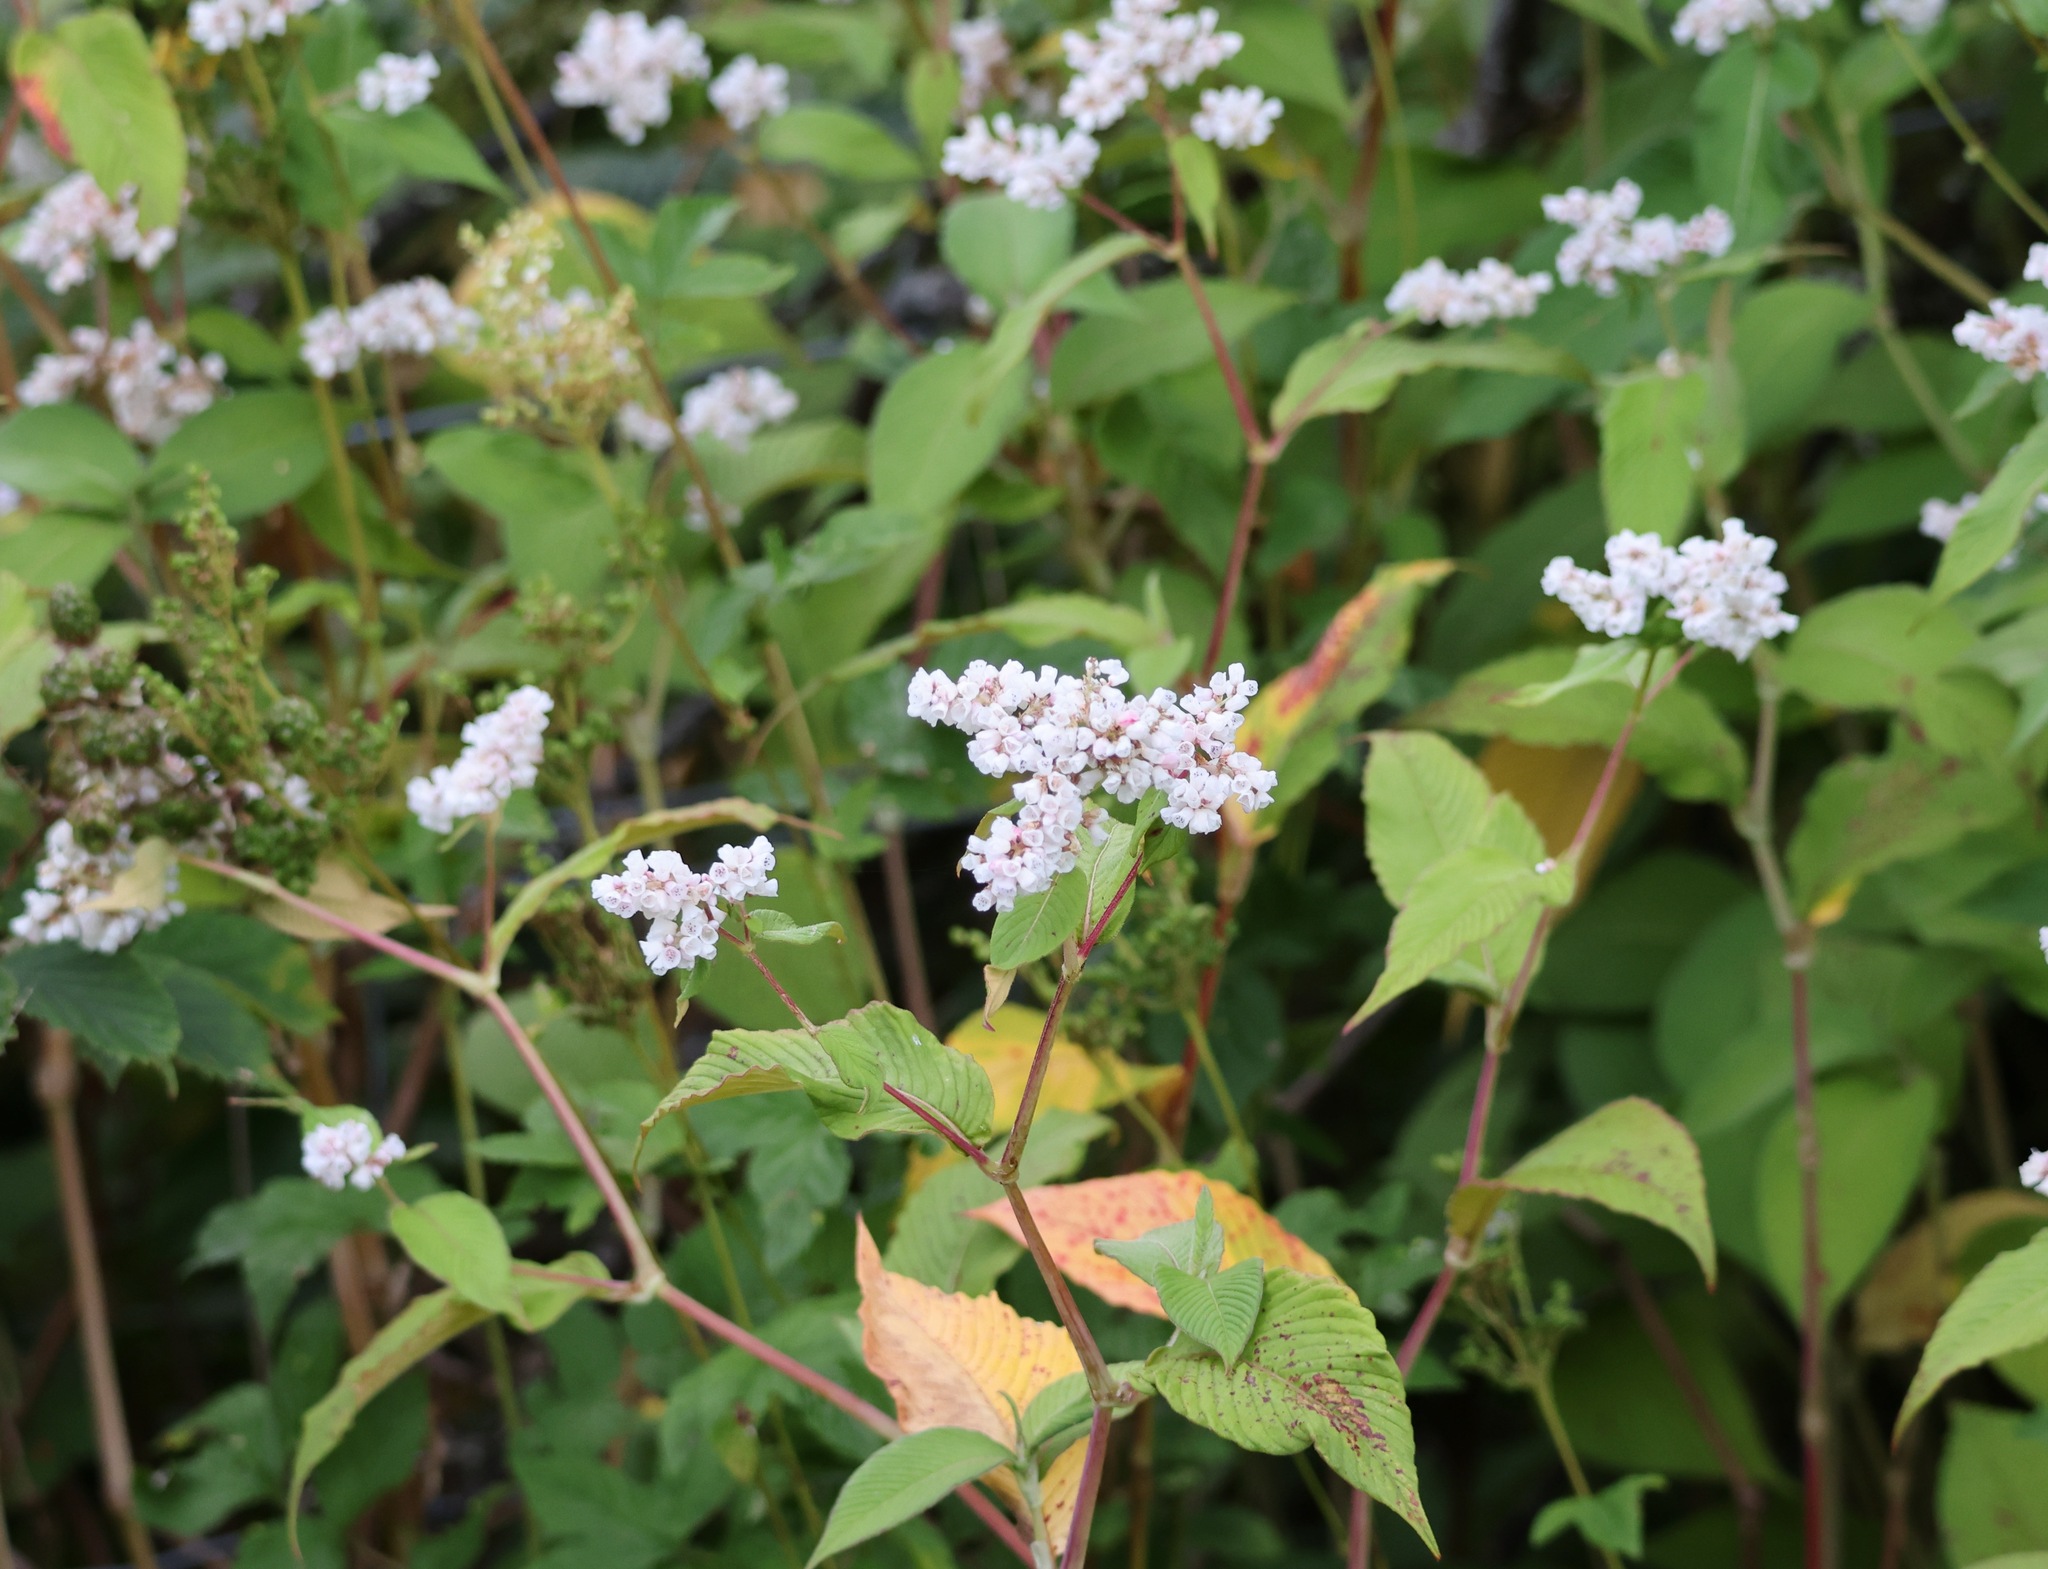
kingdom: Plantae
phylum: Tracheophyta
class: Magnoliopsida
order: Caryophyllales
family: Polygonaceae
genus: Koenigia
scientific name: Koenigia campanulata
